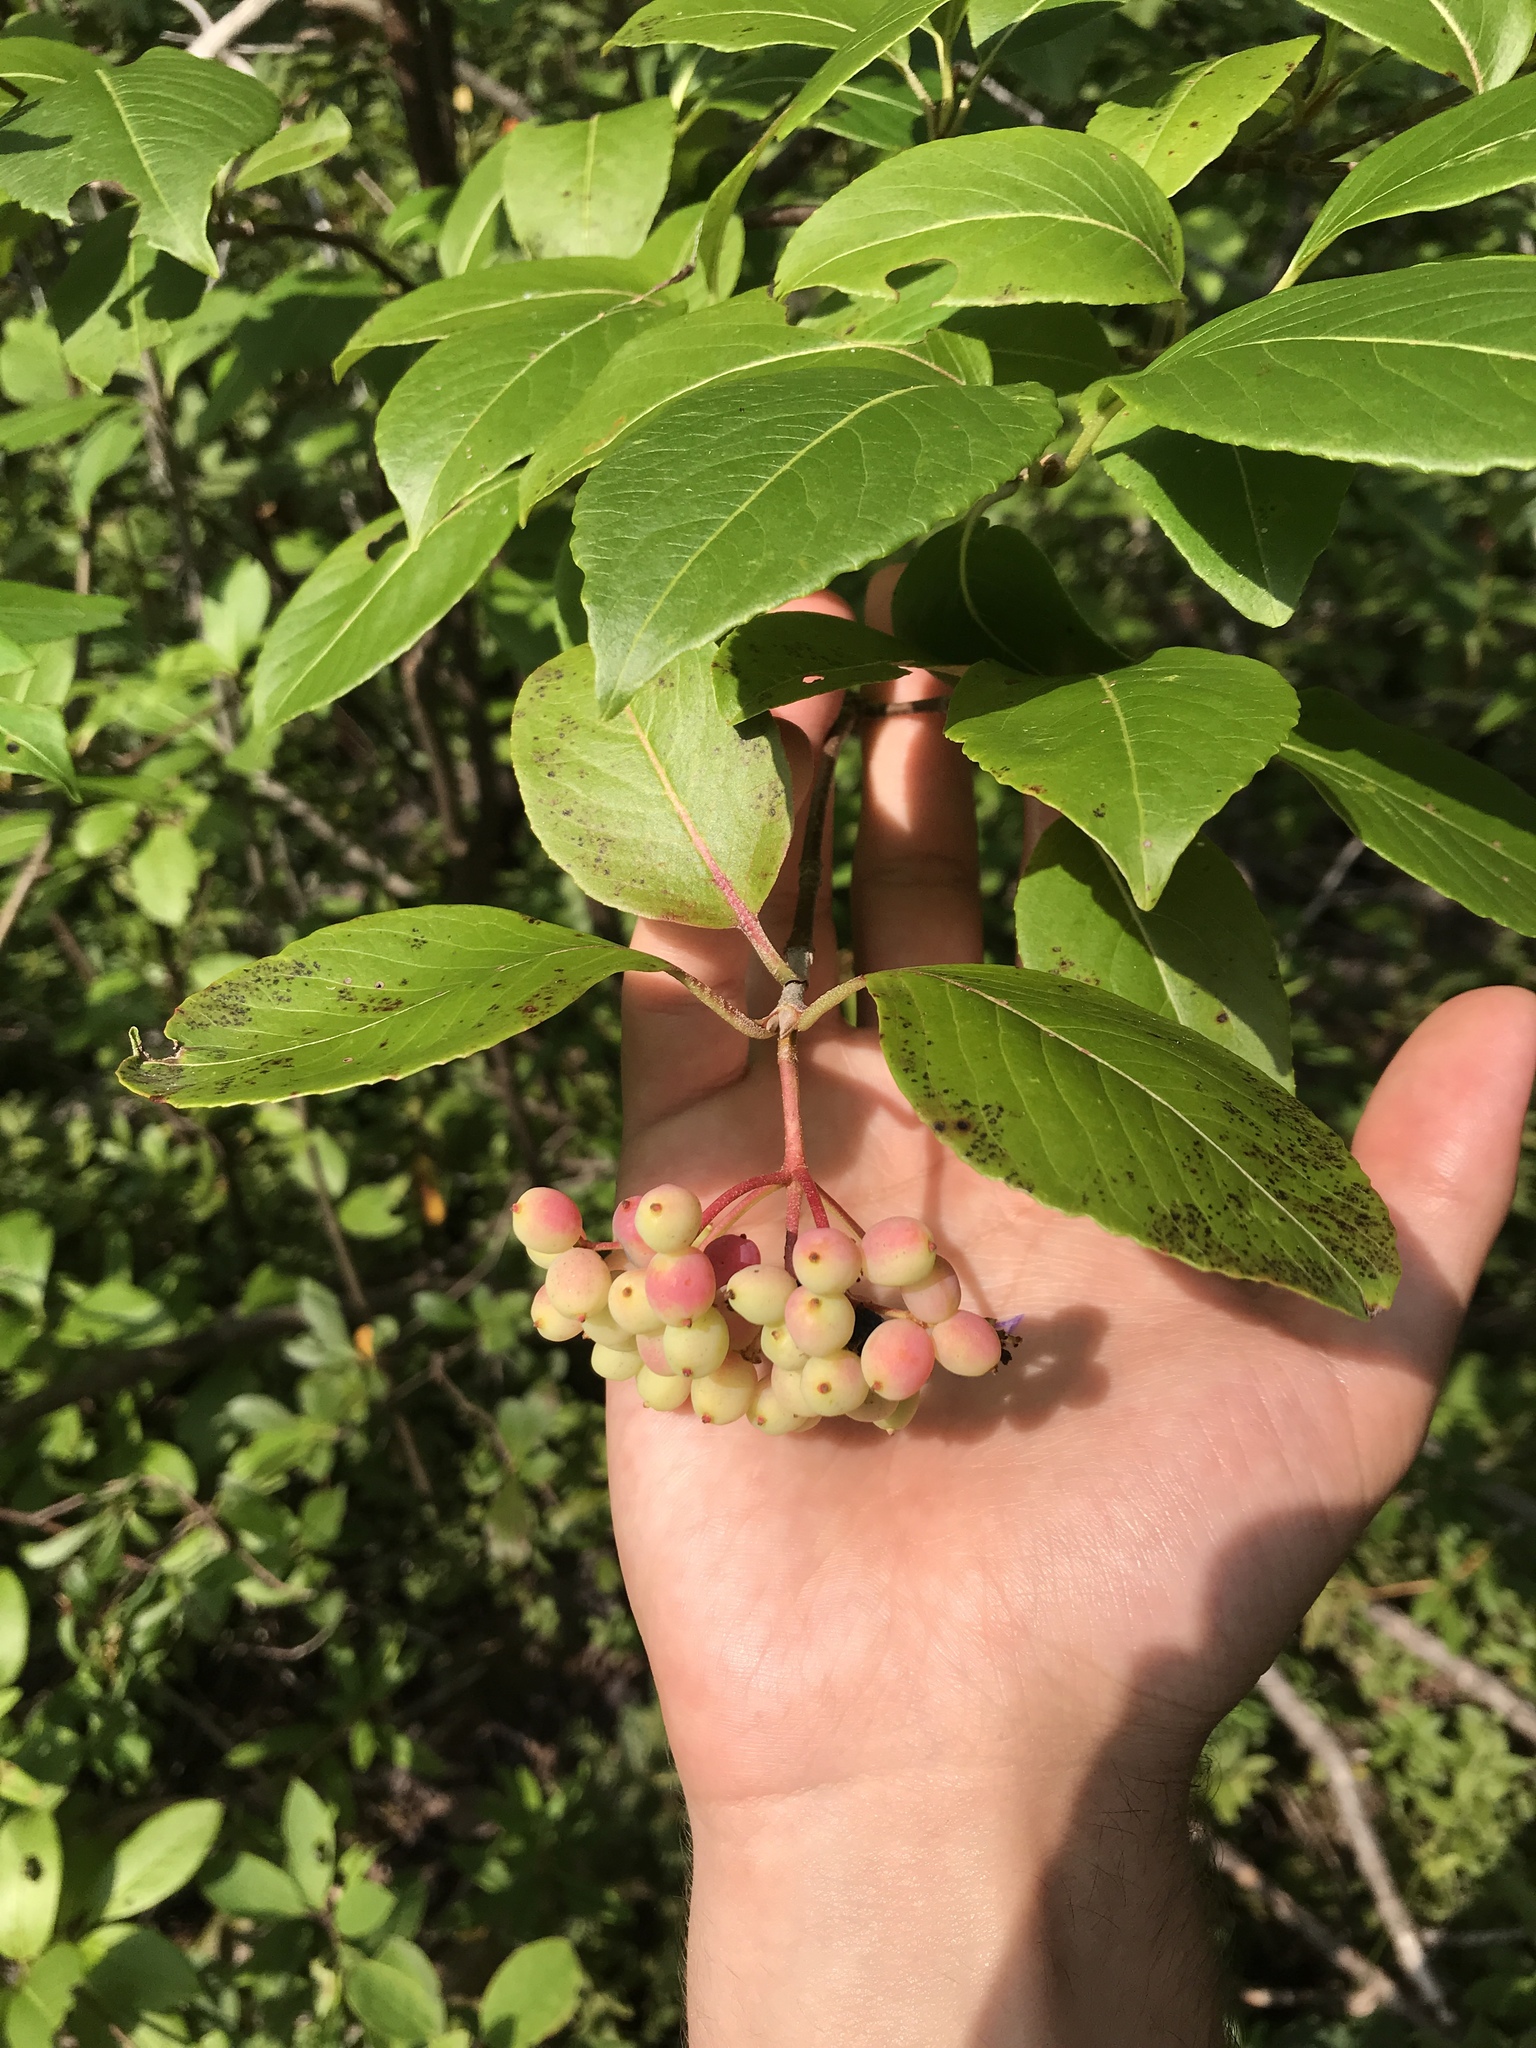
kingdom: Plantae
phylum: Tracheophyta
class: Magnoliopsida
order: Dipsacales
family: Viburnaceae
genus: Viburnum
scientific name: Viburnum cassinoides
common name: Swamp haw
